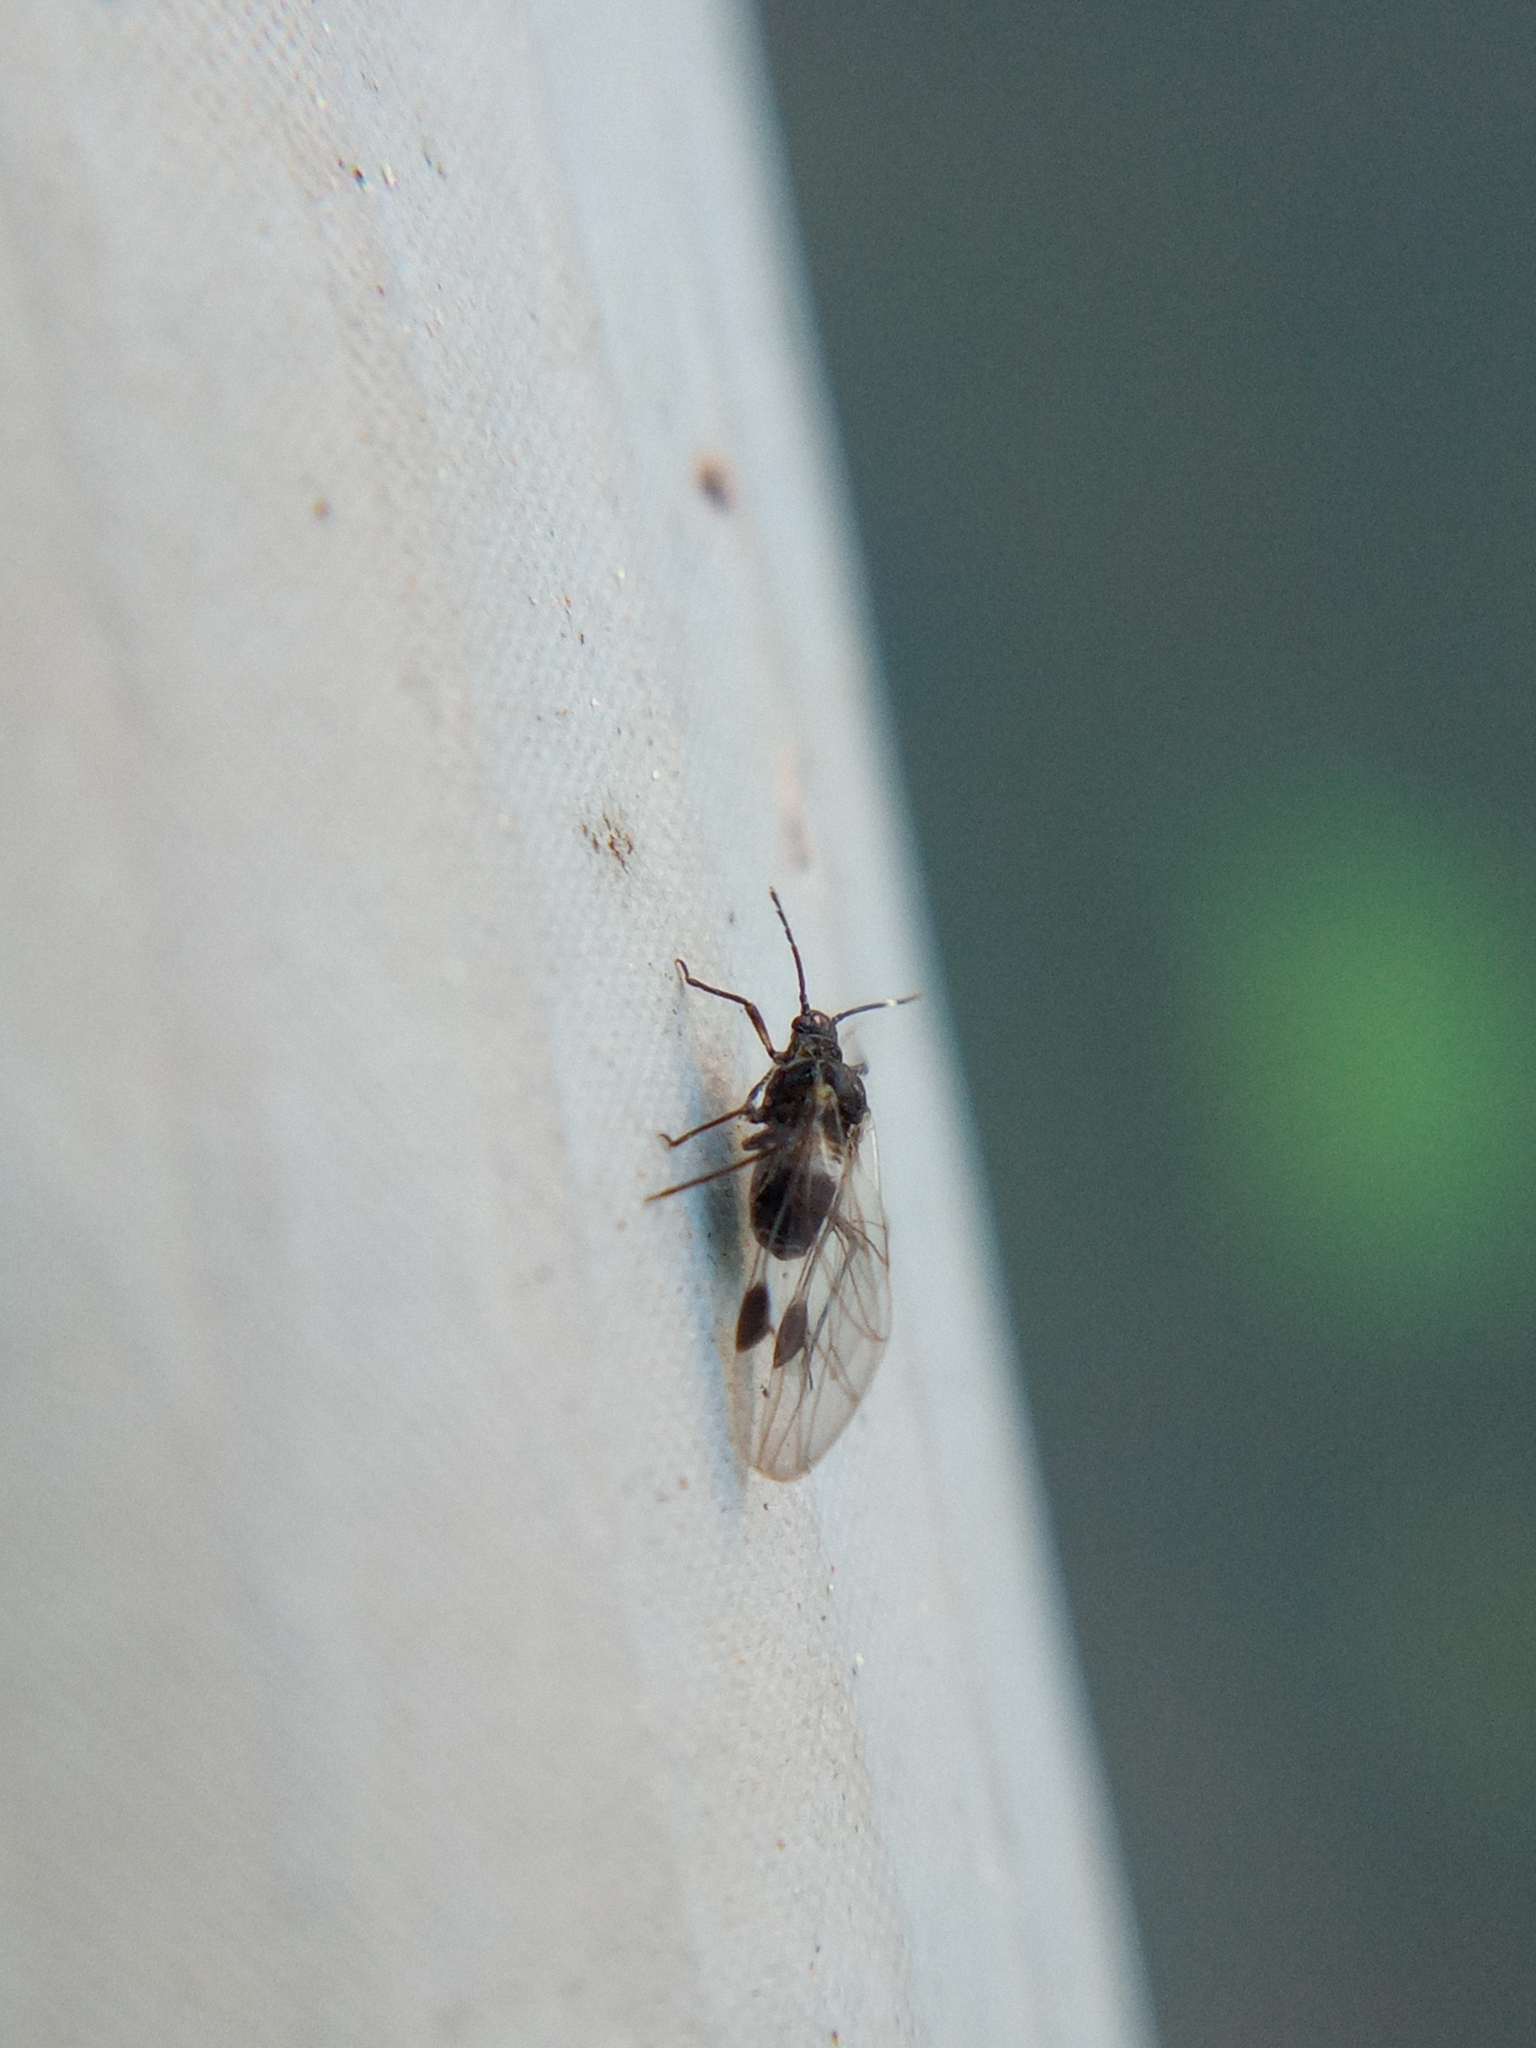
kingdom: Animalia
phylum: Arthropoda
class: Insecta
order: Hemiptera
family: Aphididae
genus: Anoecia
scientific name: Anoecia
